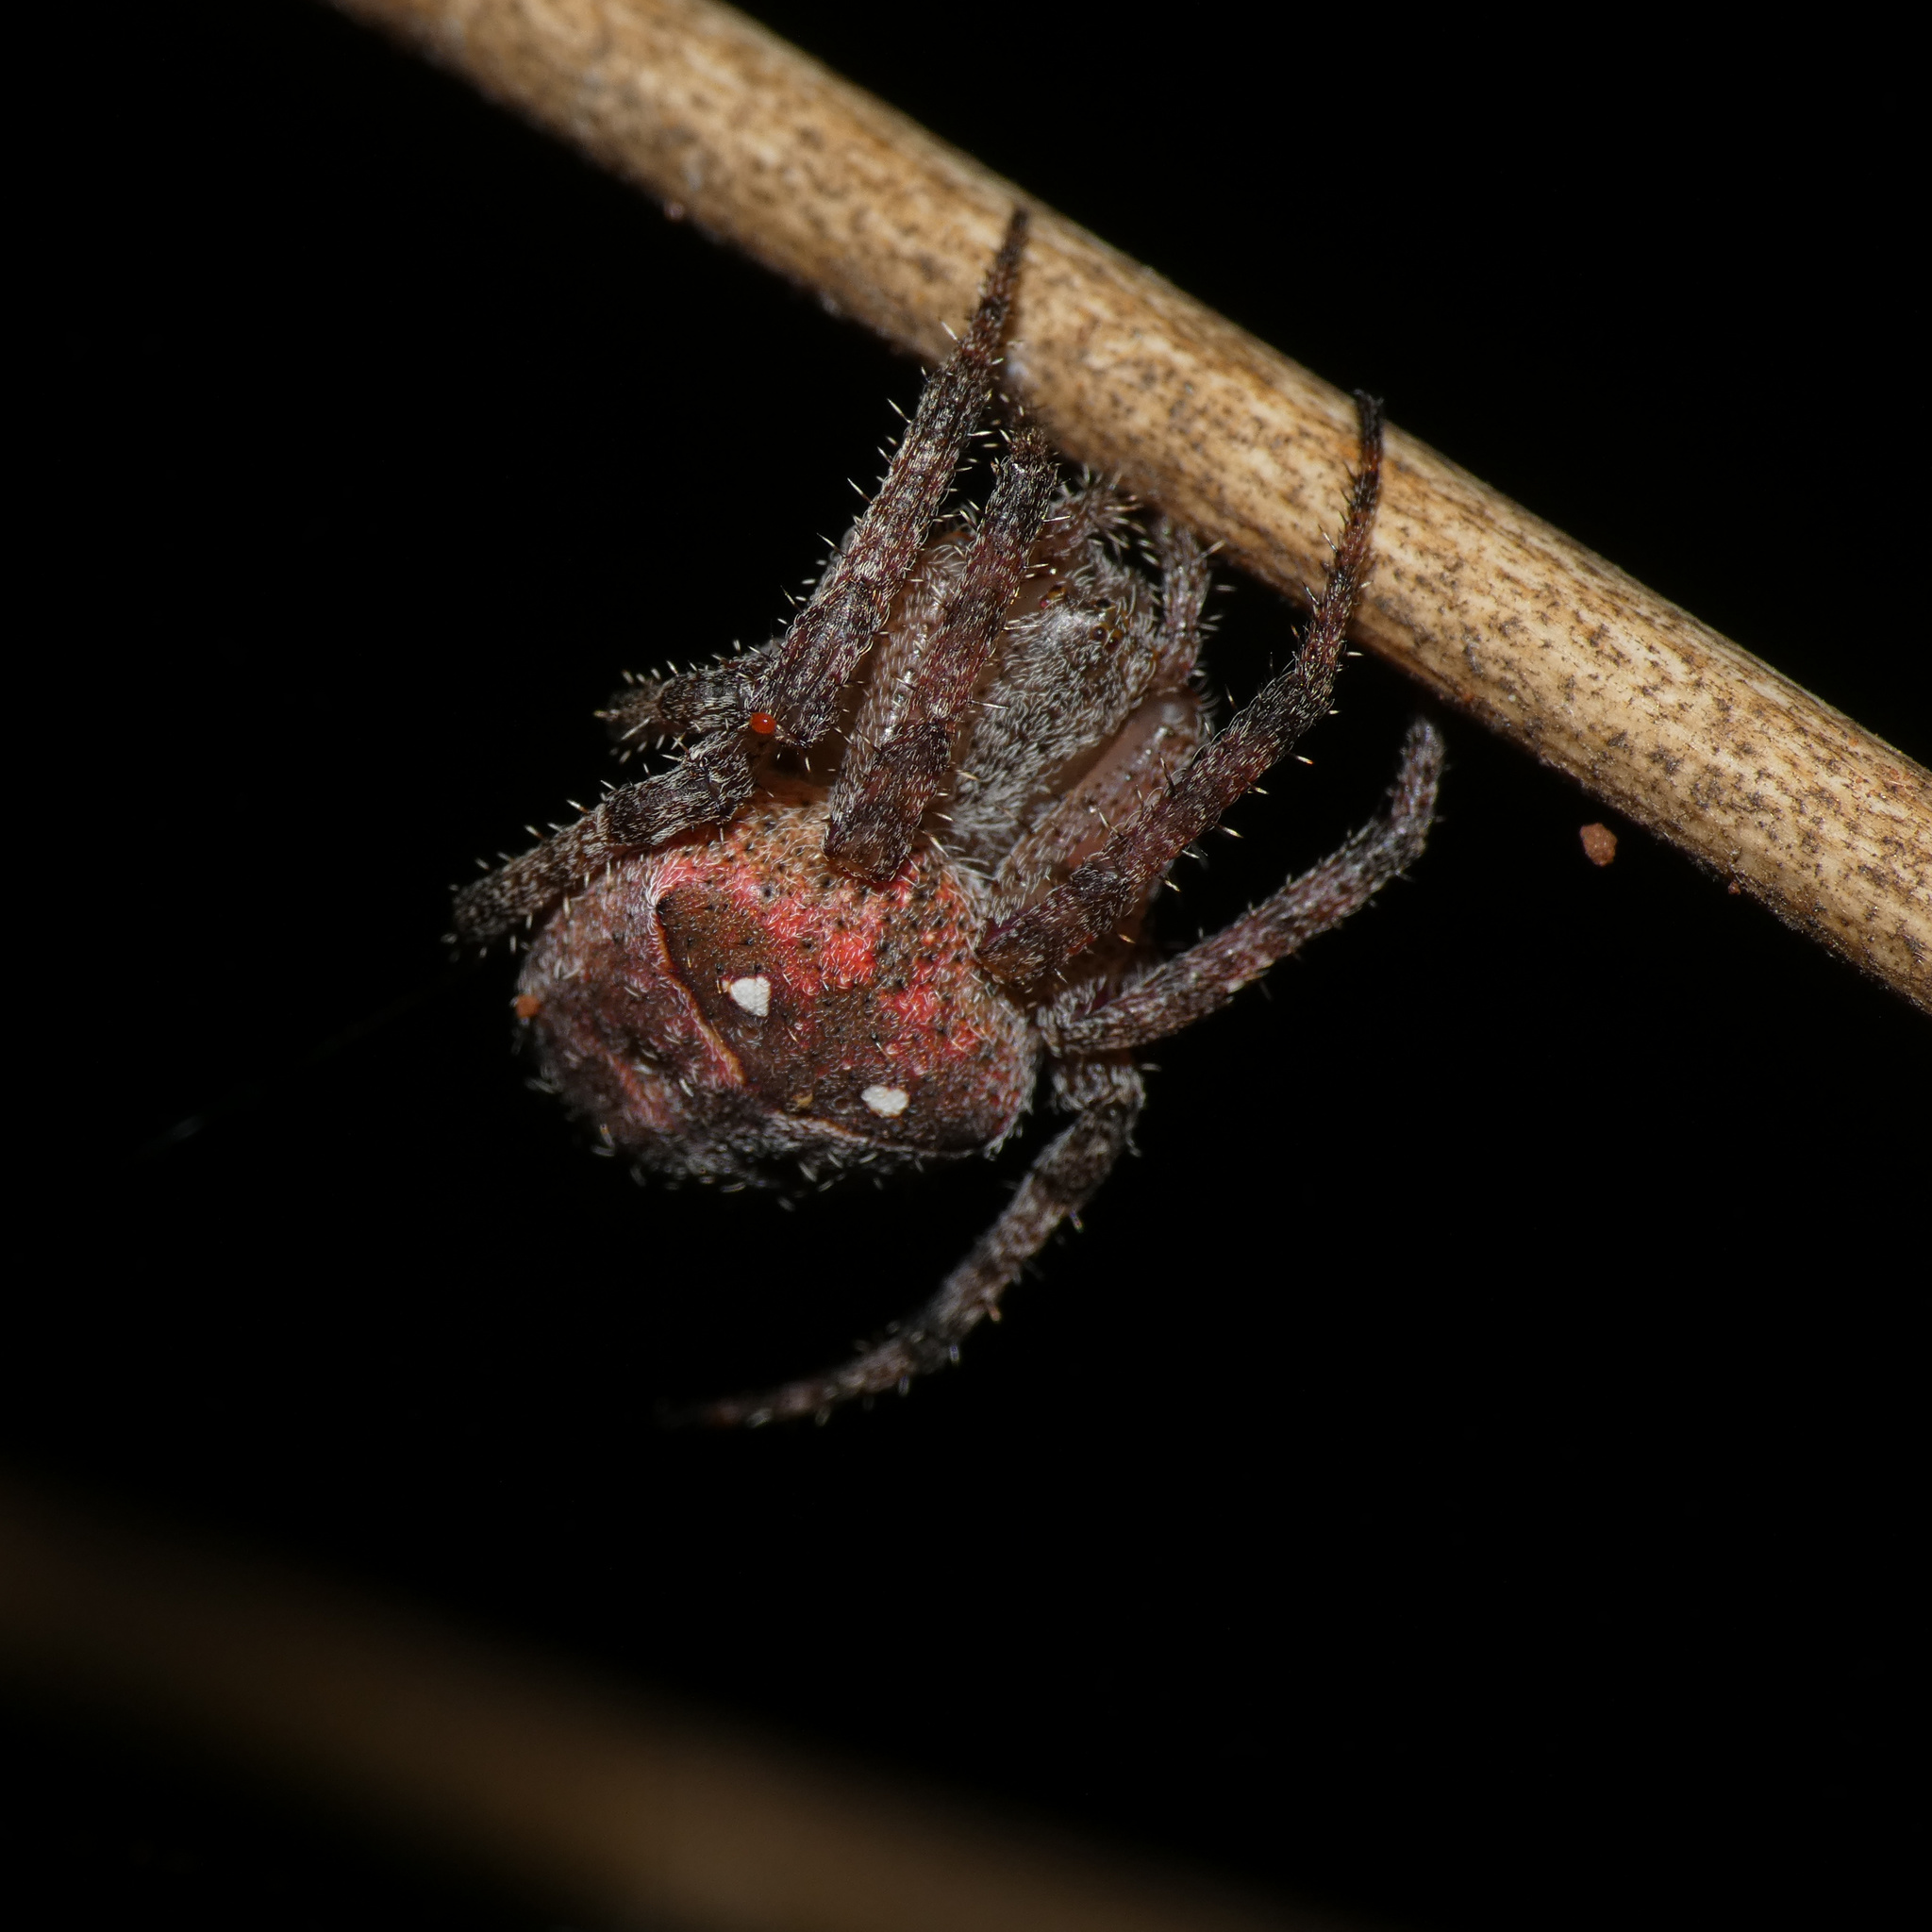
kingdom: Animalia
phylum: Arthropoda
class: Arachnida
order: Araneae
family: Araneidae
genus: Pararaneus
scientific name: Pararaneus cyrtoscapus
